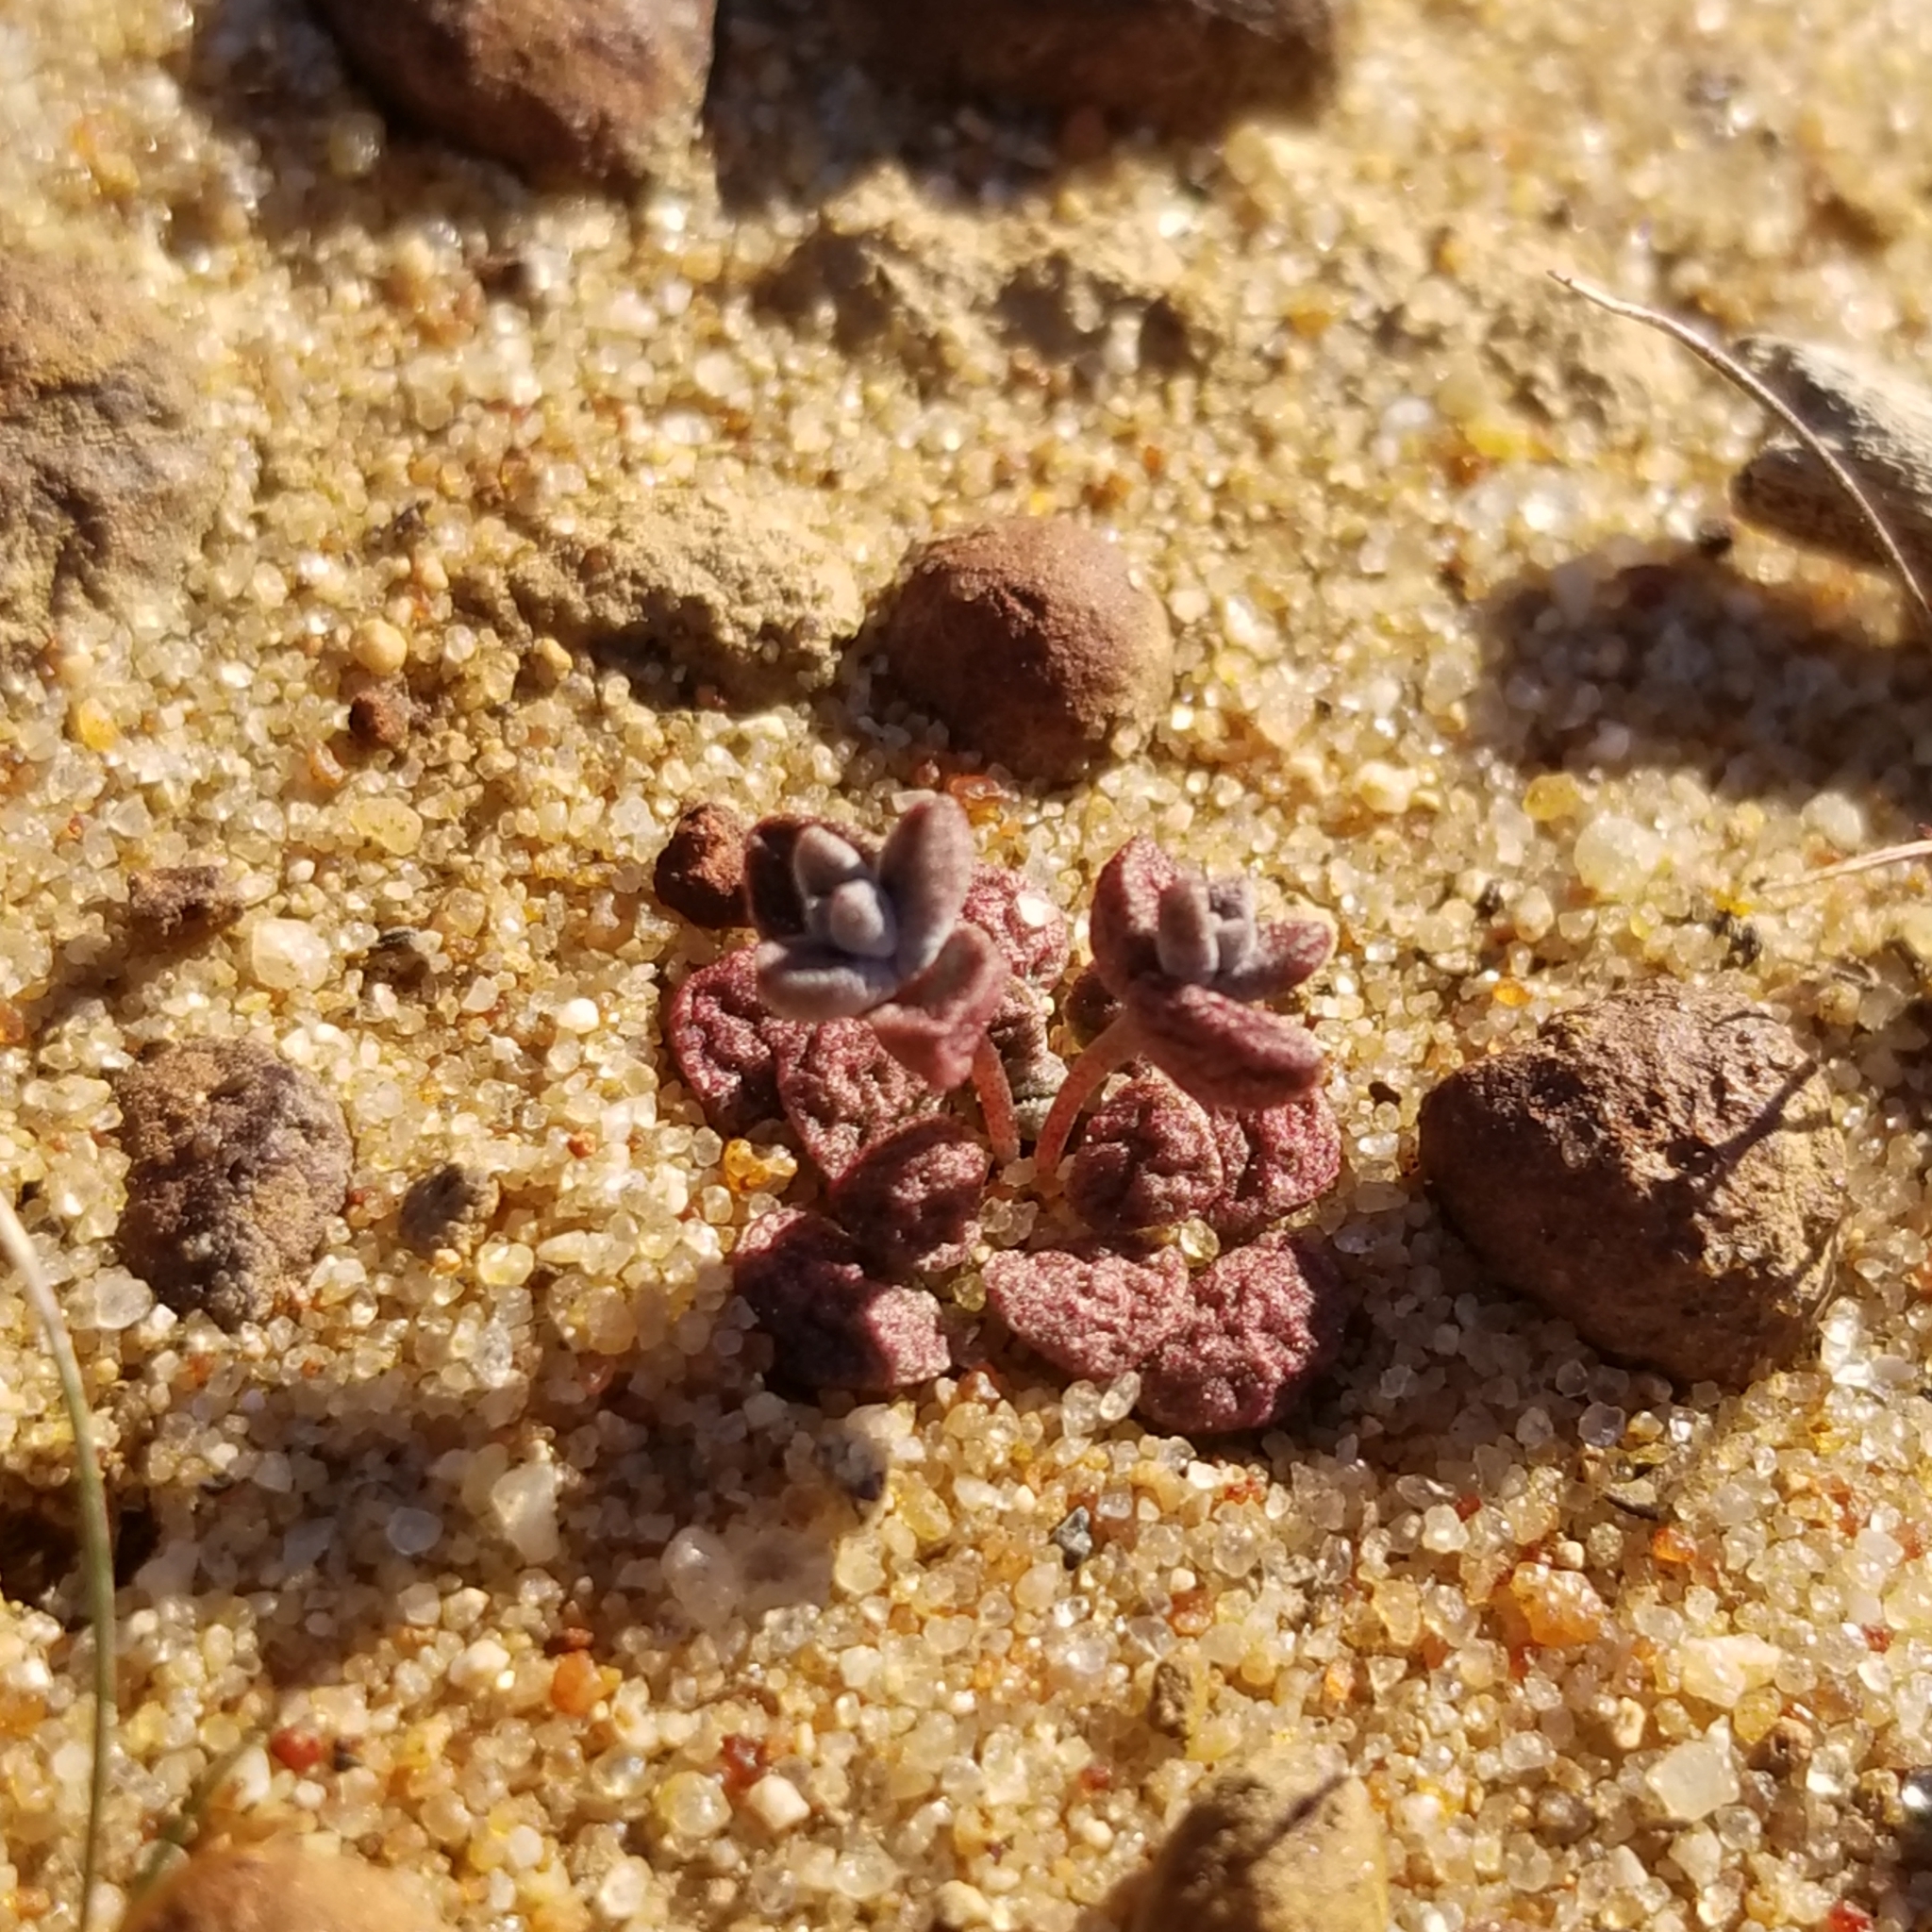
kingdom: Plantae
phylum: Tracheophyta
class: Magnoliopsida
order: Saxifragales
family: Crassulaceae
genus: Dudleya
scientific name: Dudleya blochmaniae
